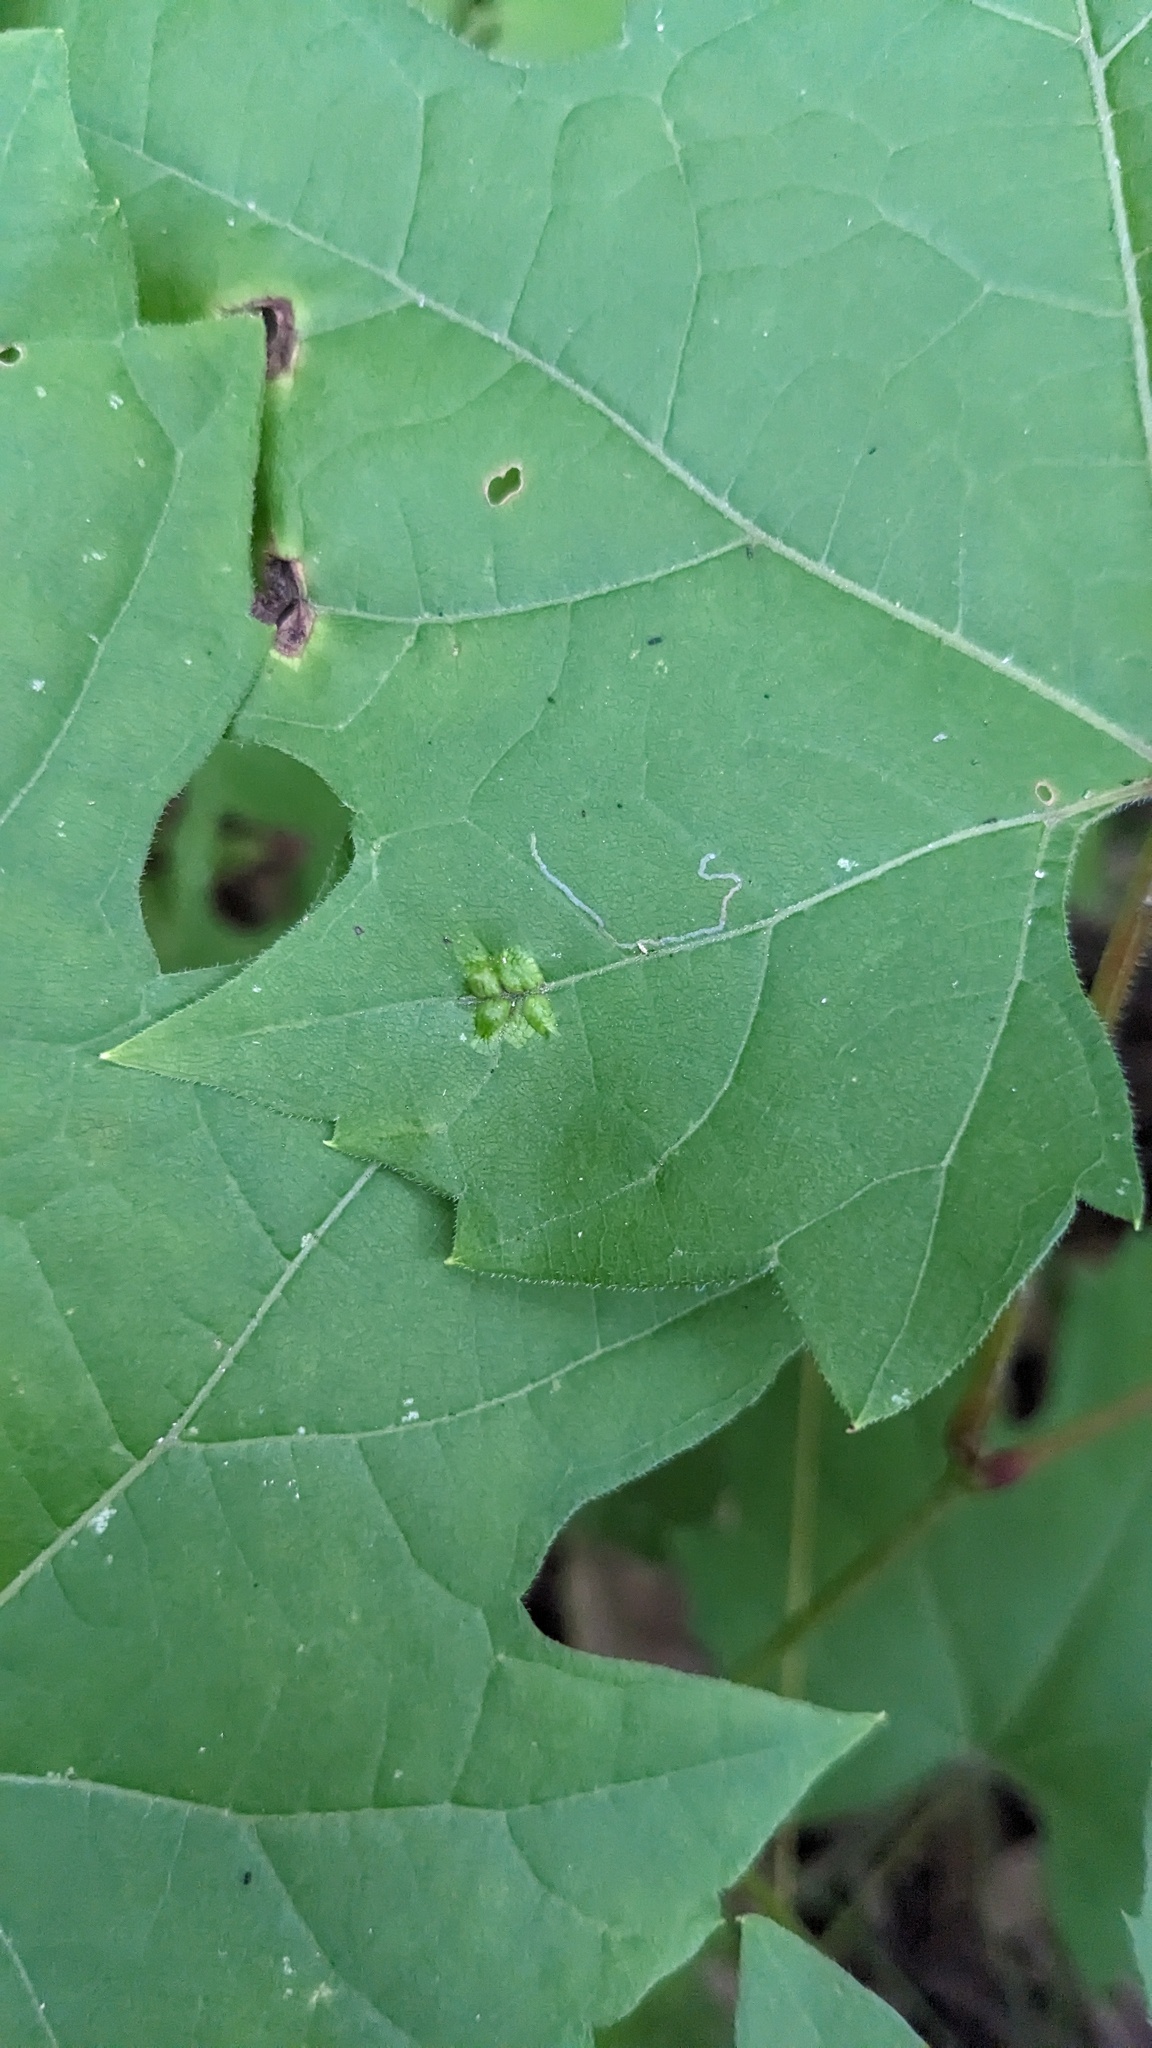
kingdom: Animalia
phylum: Arthropoda
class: Insecta
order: Lepidoptera
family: Heliozelidae
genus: Heliozela
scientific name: Heliozela aesella
